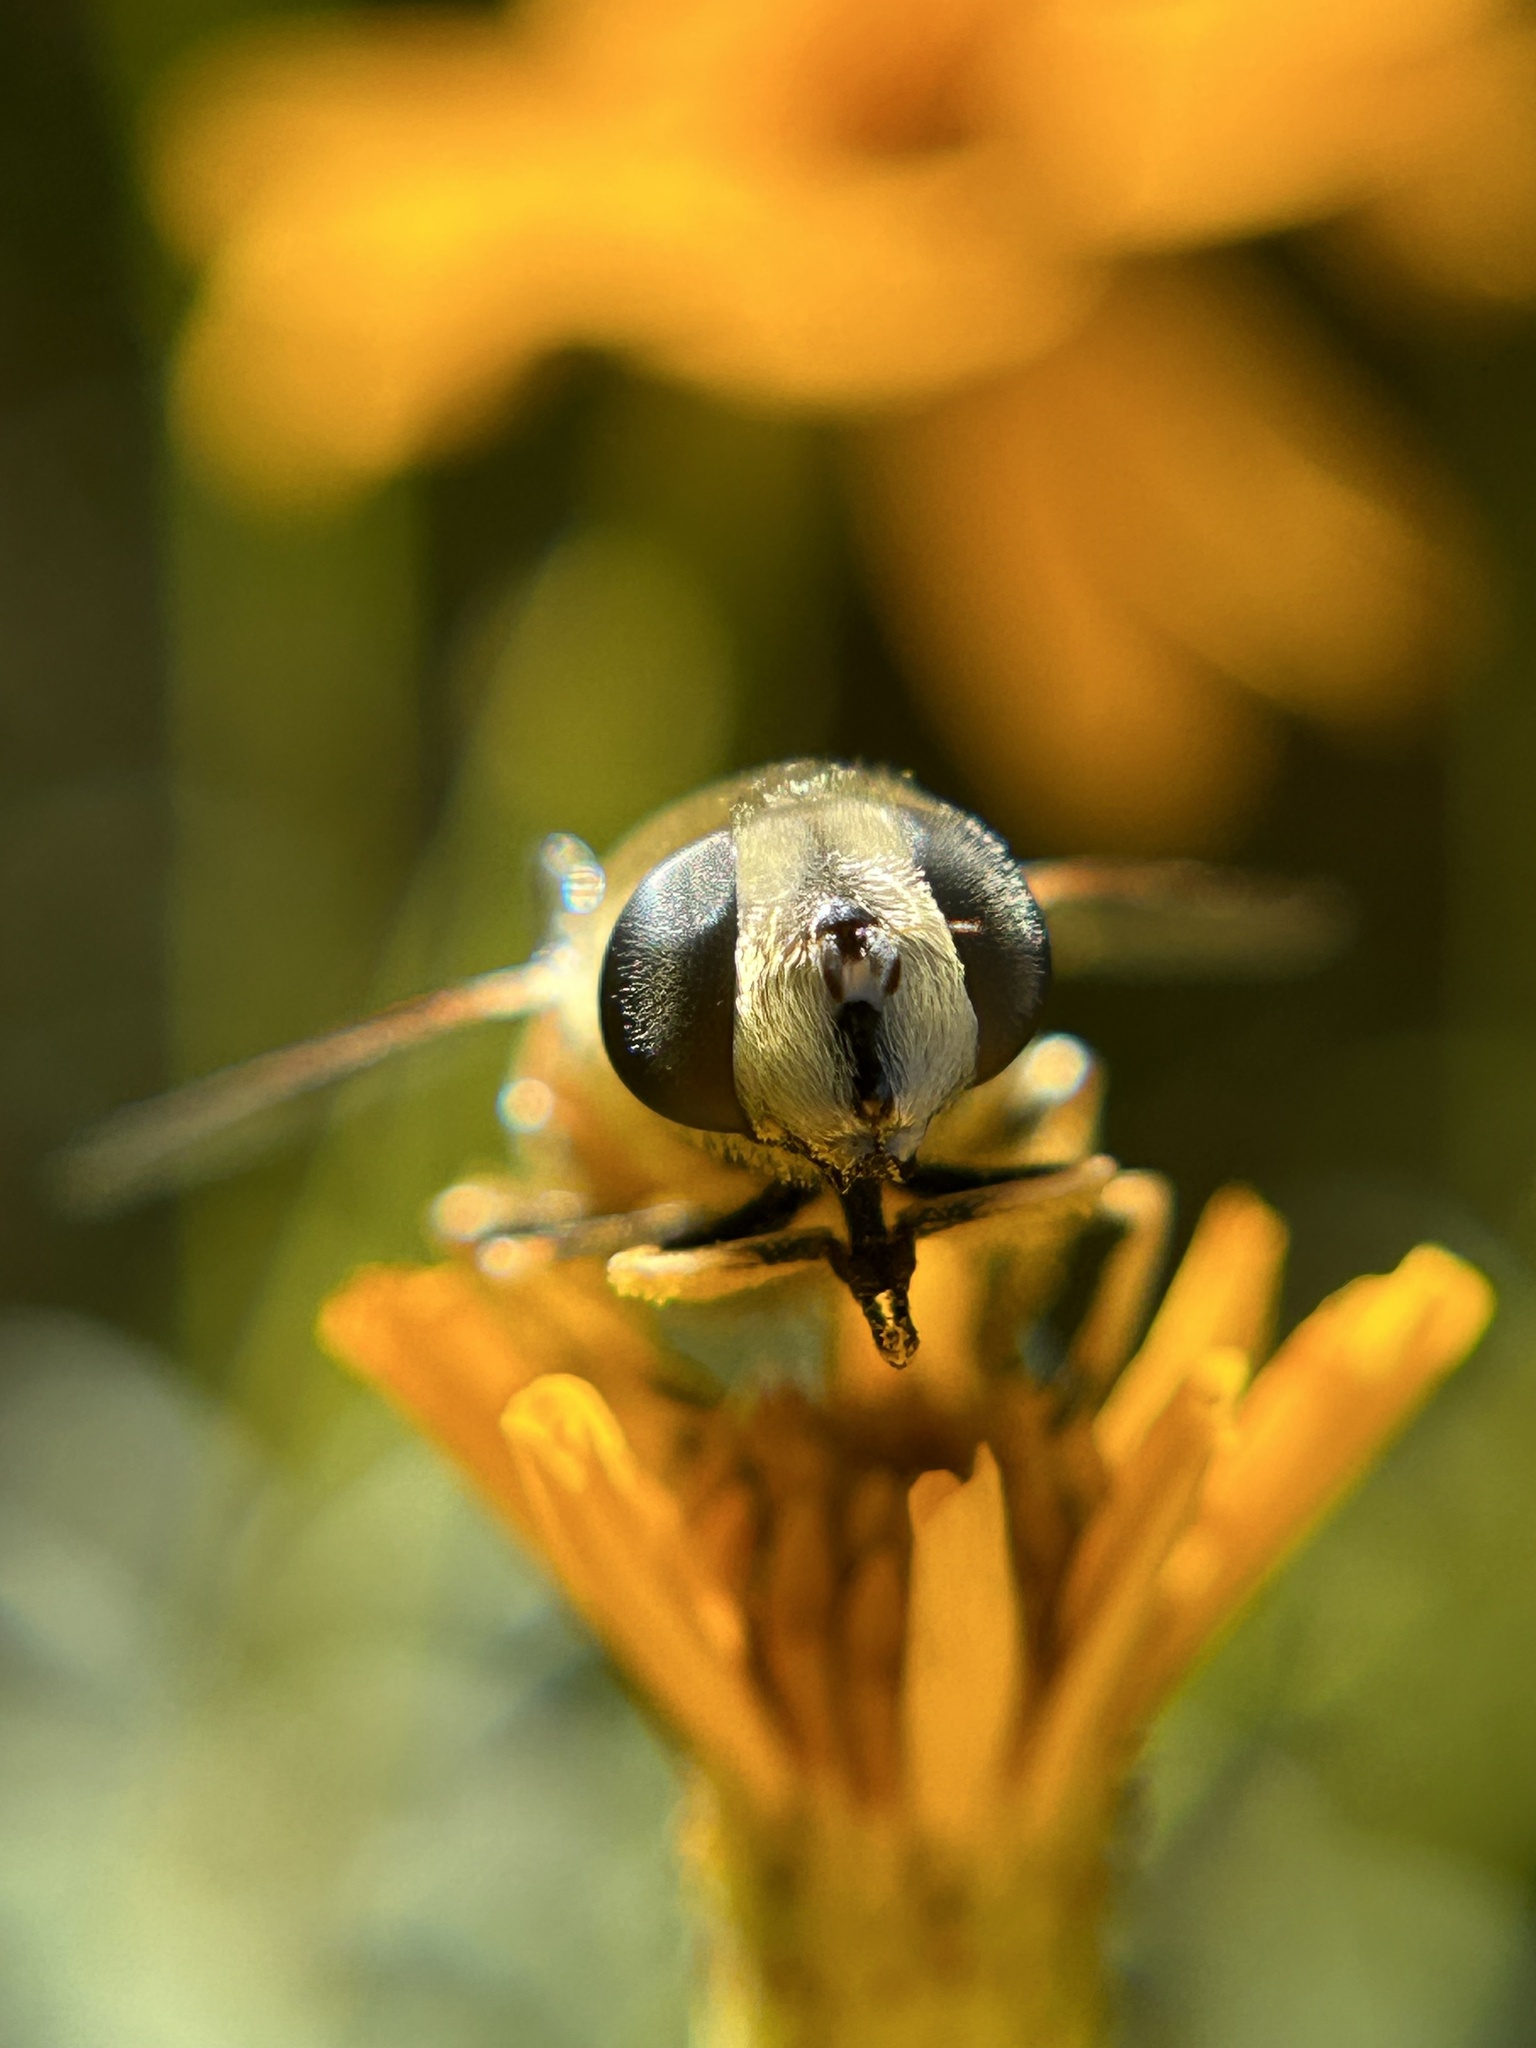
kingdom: Animalia
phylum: Arthropoda
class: Insecta
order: Diptera
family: Syrphidae
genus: Eristalis
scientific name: Eristalis tenax
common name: Drone fly
